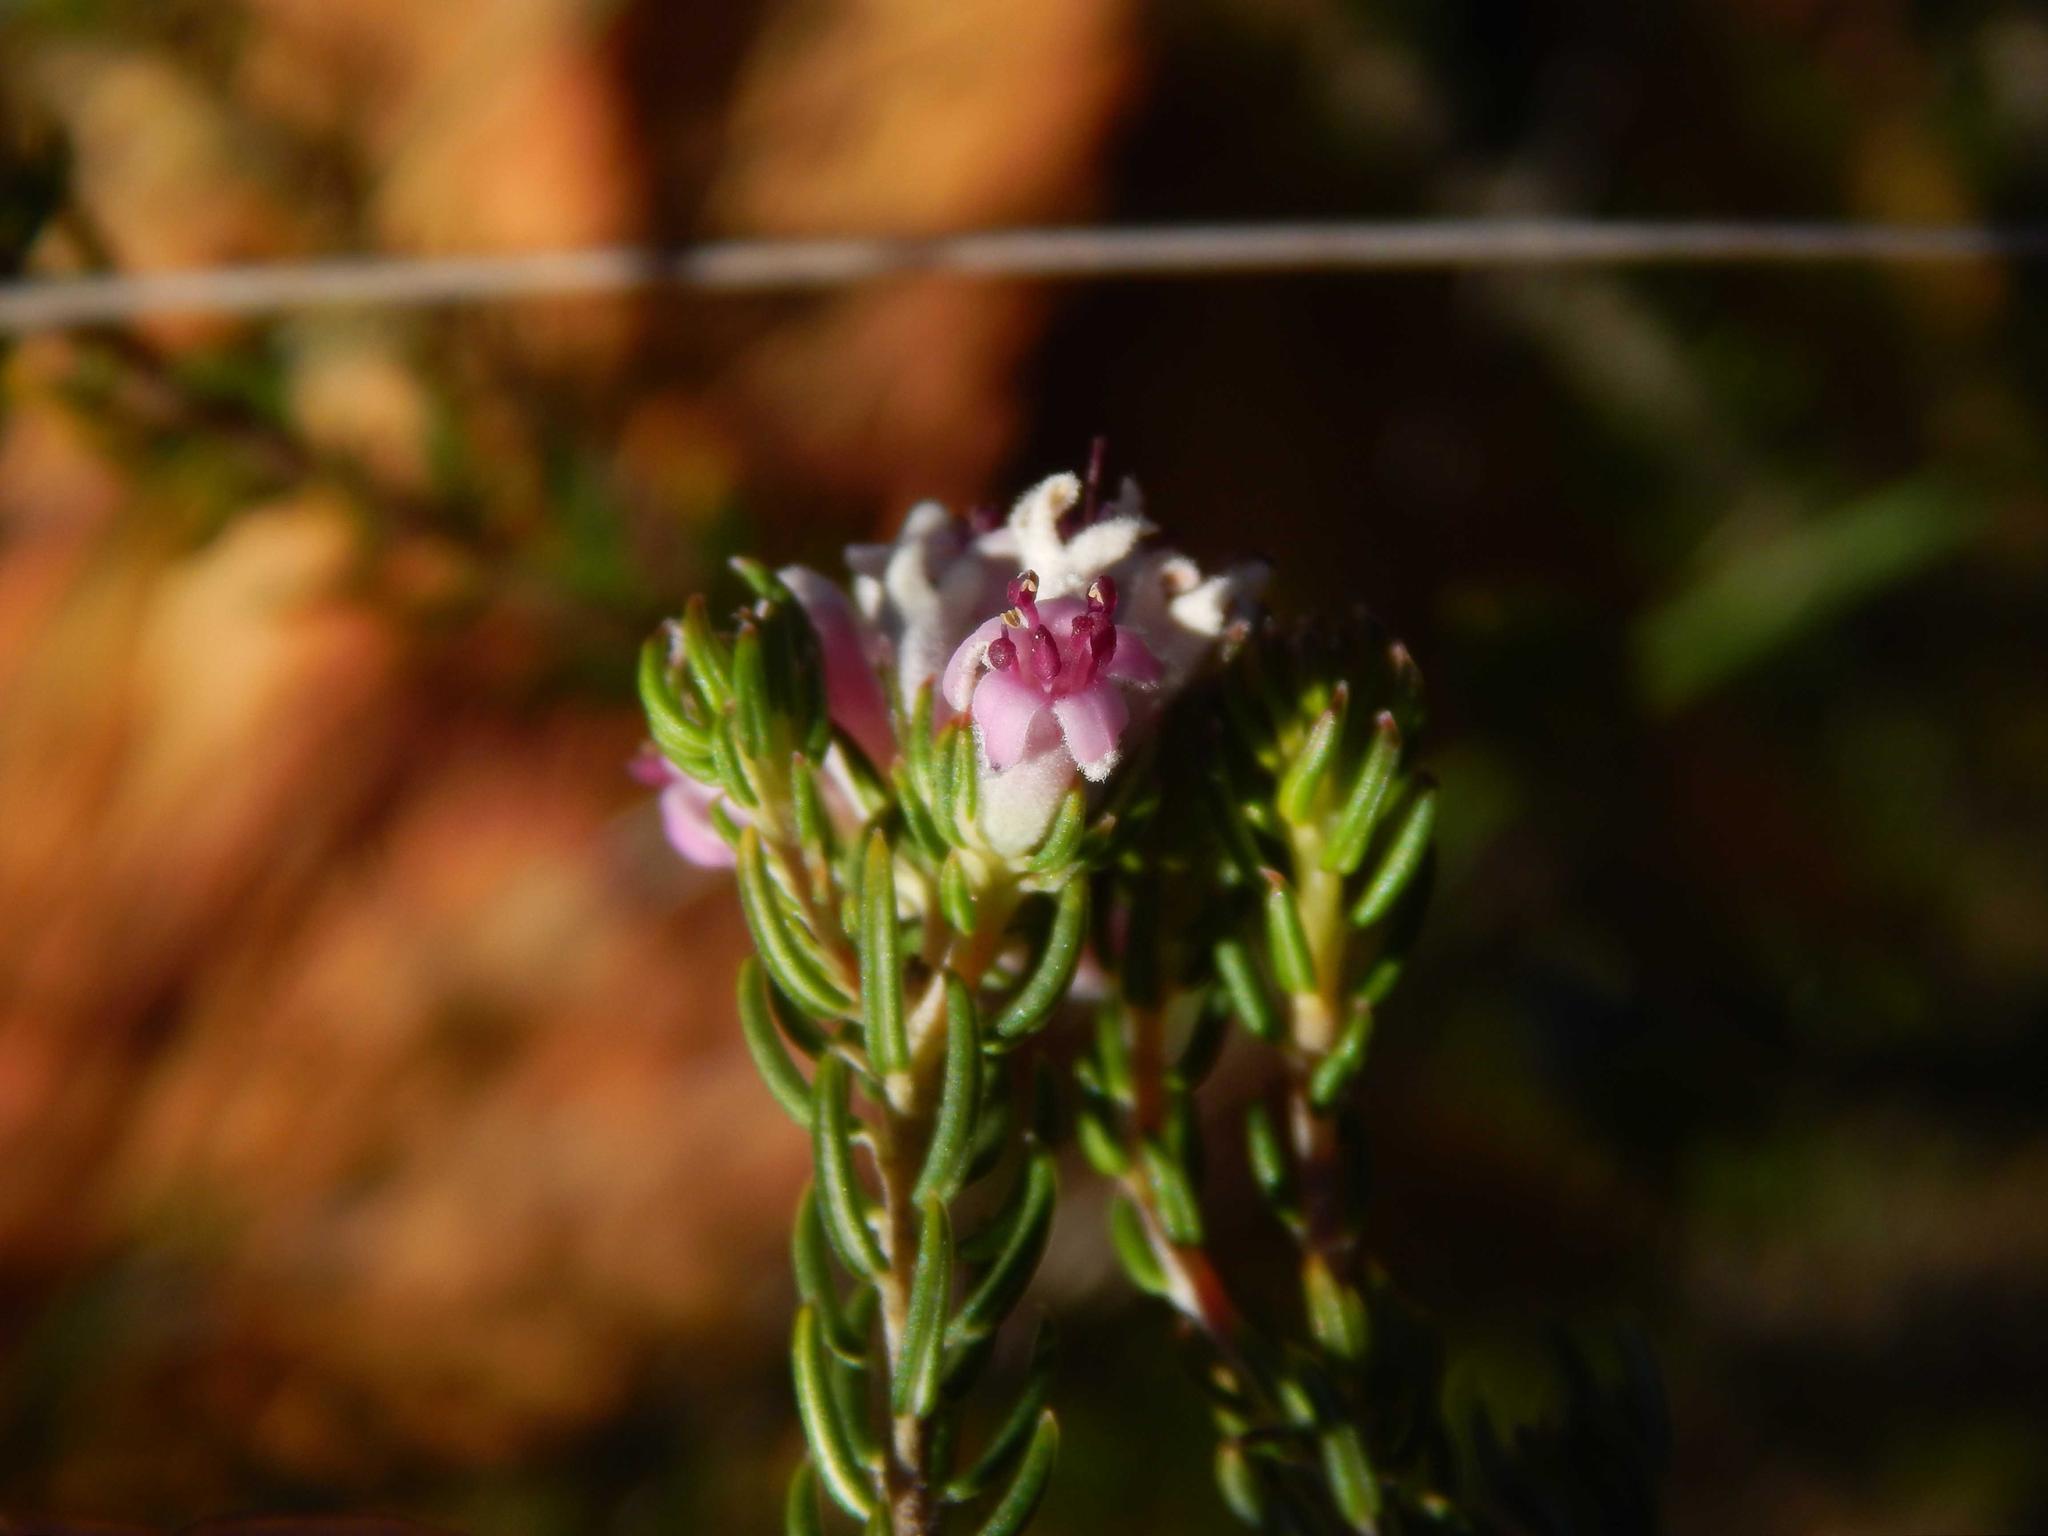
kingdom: Plantae
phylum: Tracheophyta
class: Magnoliopsida
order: Rosales
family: Rhamnaceae
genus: Phylica
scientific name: Phylica lachneaeoides
